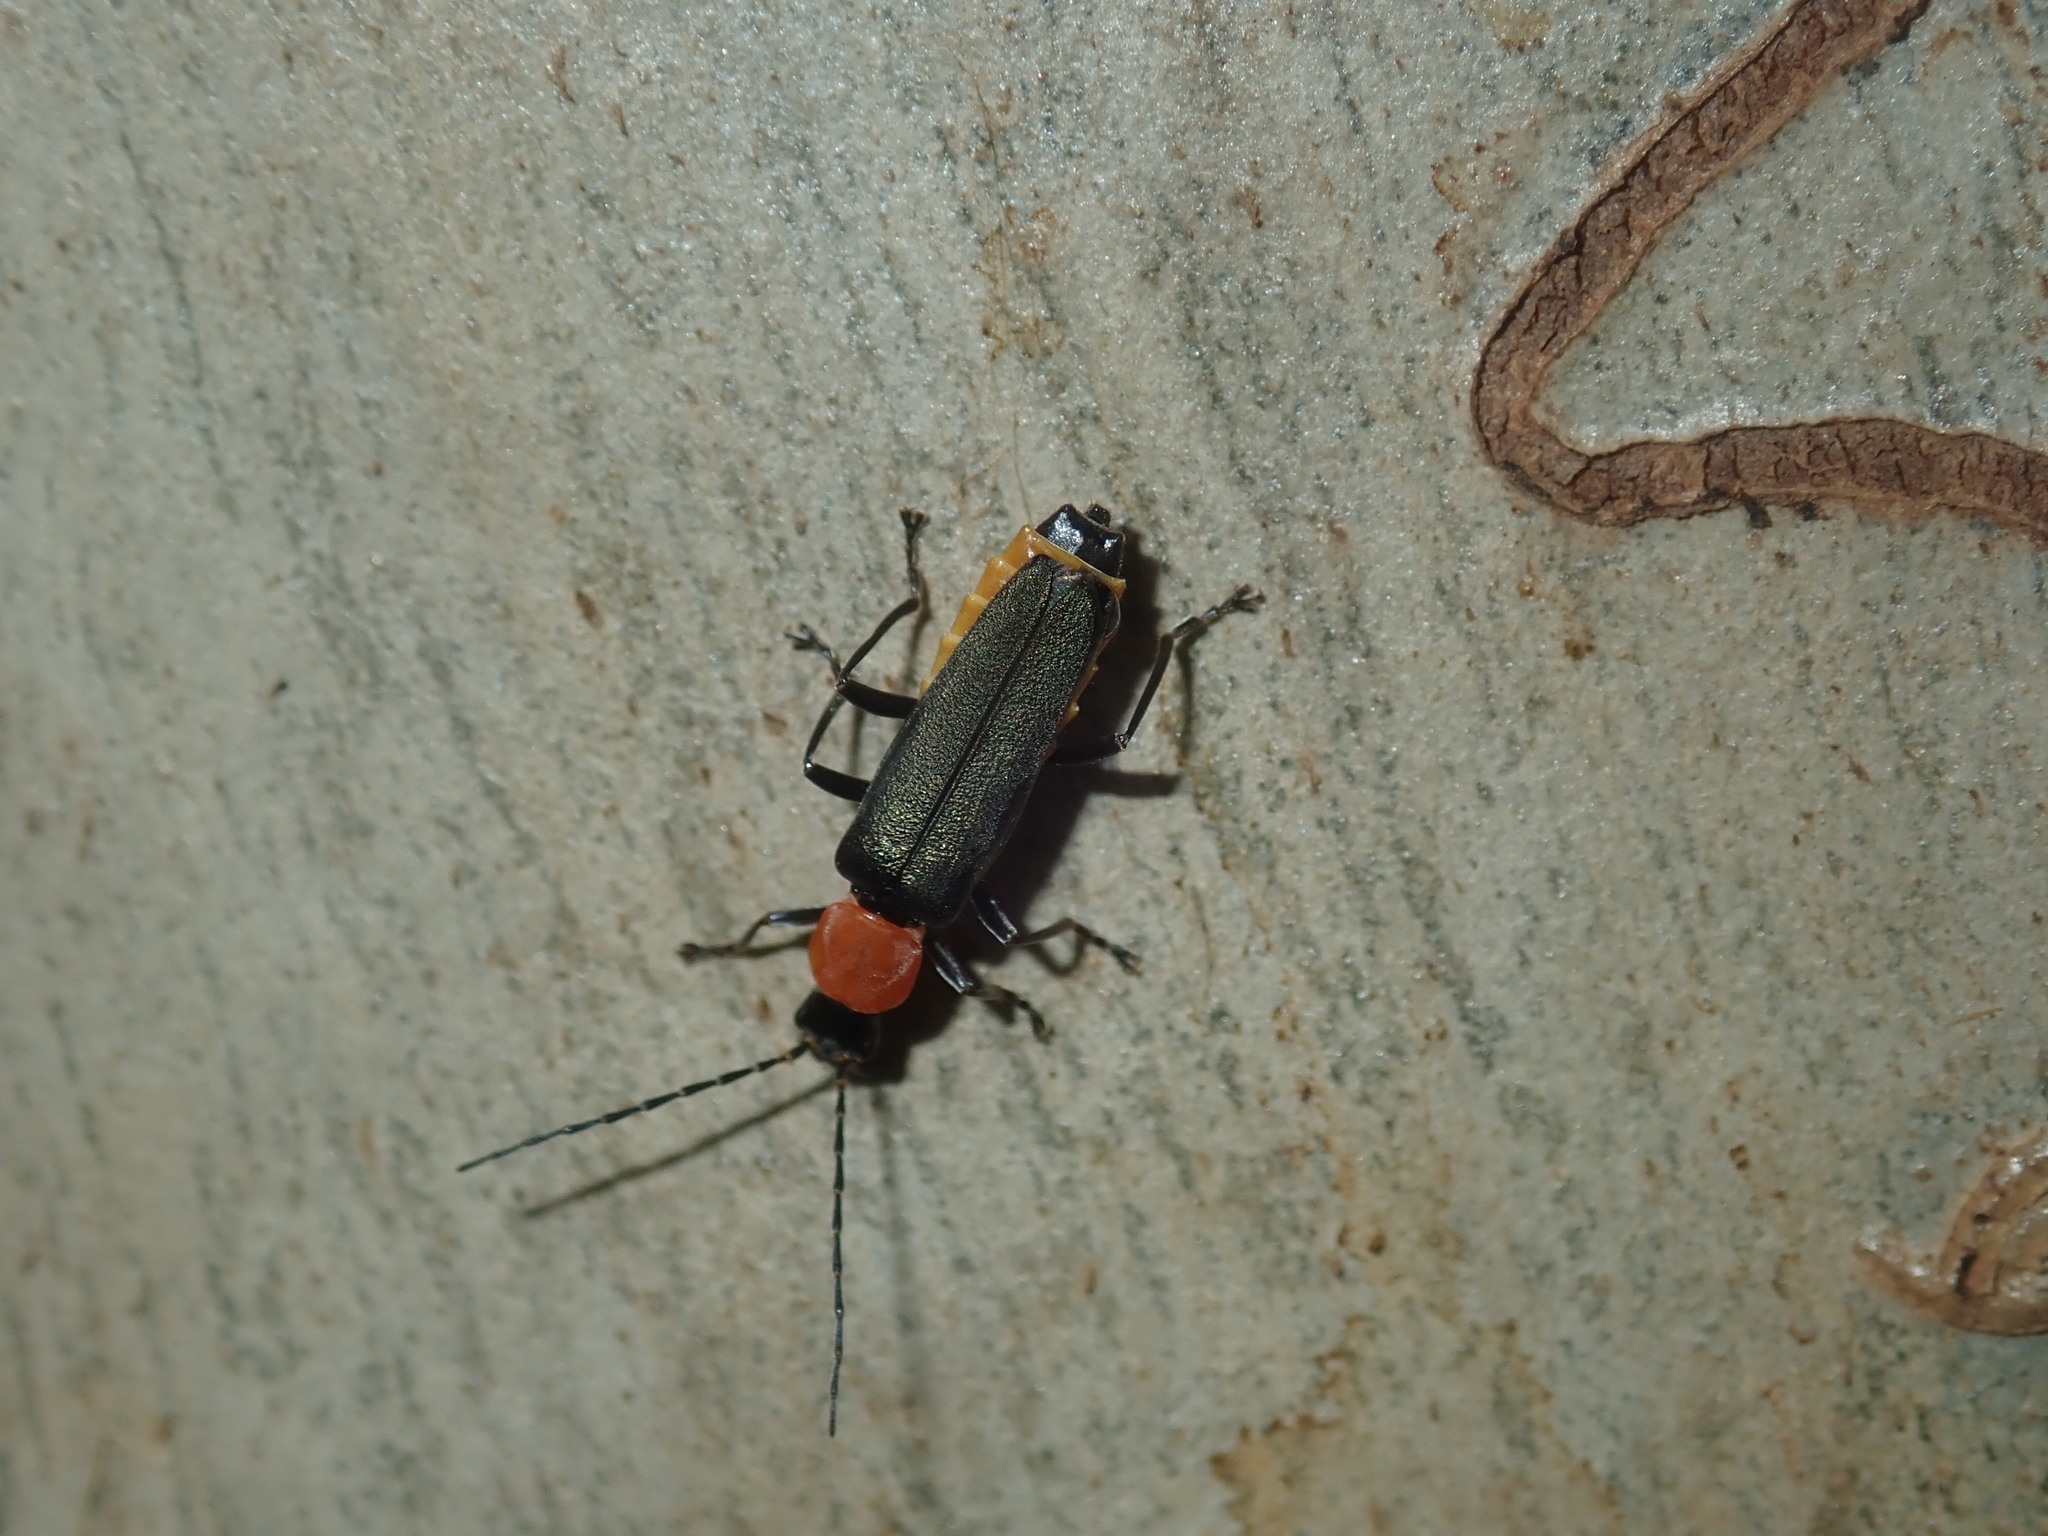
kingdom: Animalia
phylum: Arthropoda
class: Insecta
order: Coleoptera
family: Cantharidae
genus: Chauliognathus
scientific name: Chauliognathus
